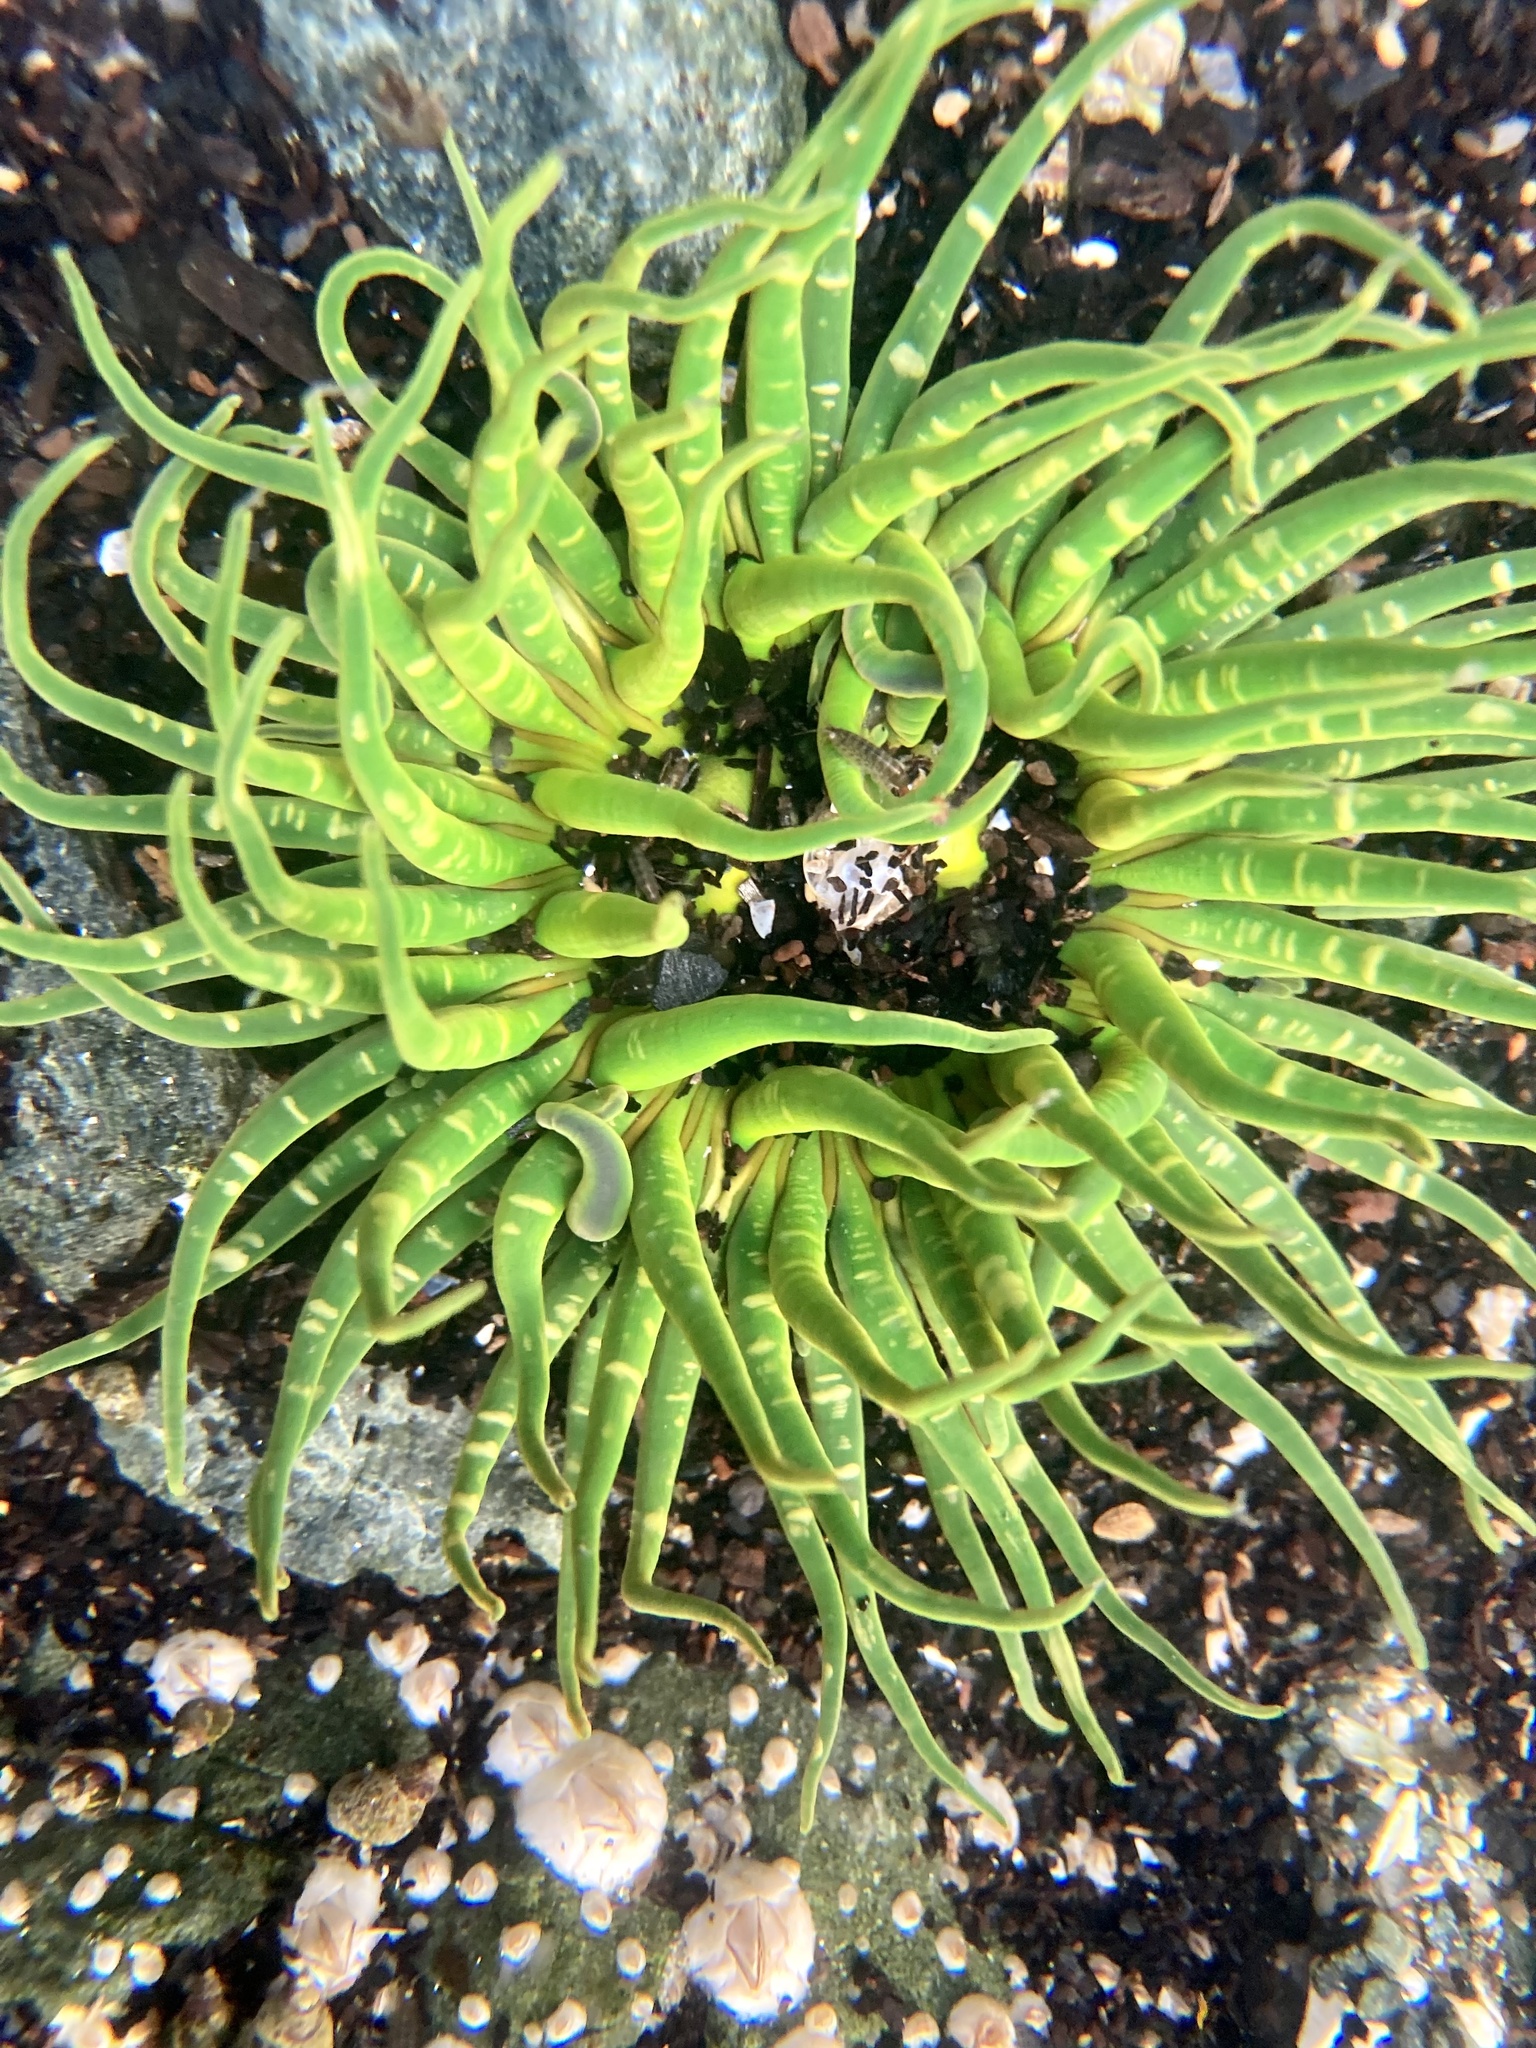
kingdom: Animalia
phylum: Cnidaria
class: Anthozoa
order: Actiniaria
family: Actiniidae
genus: Anthopleura
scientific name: Anthopleura artemisia
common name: Buried sea anemone
